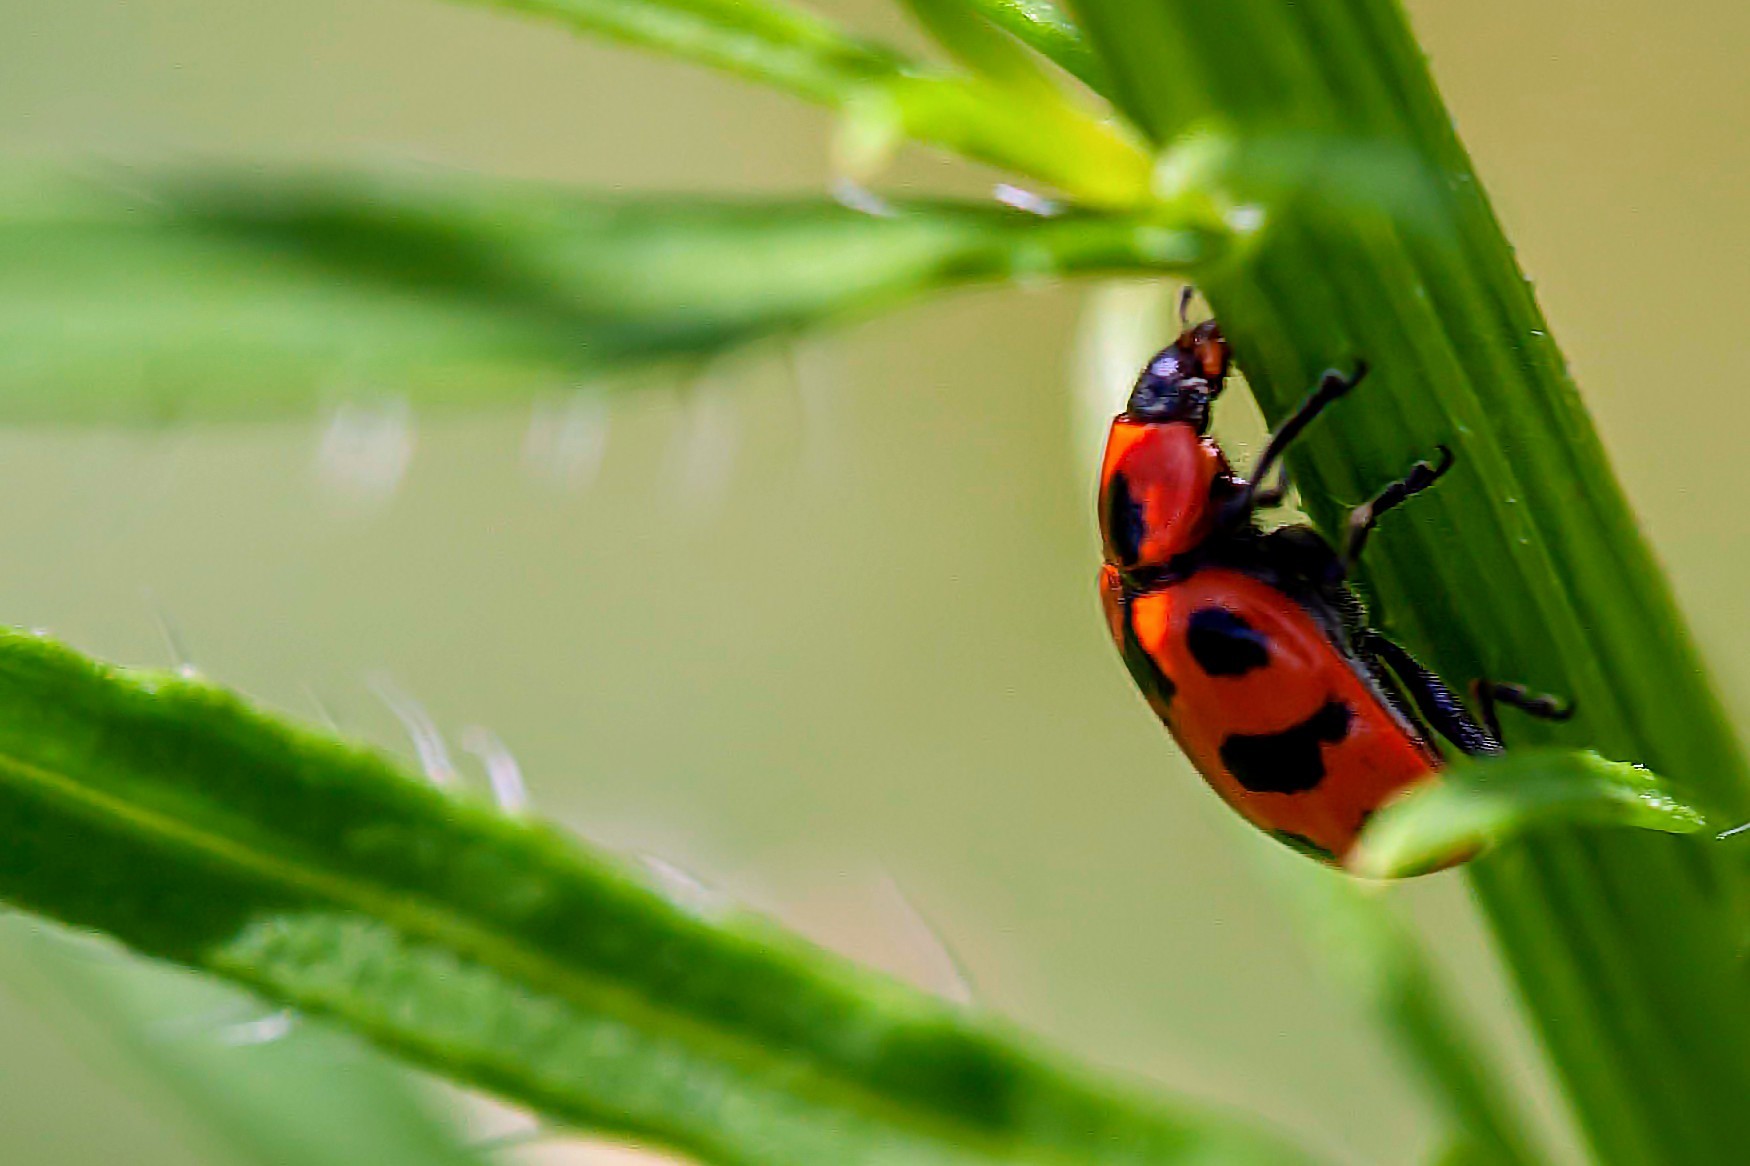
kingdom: Animalia
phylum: Arthropoda
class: Insecta
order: Coleoptera
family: Coccinellidae
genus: Coleomegilla
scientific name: Coleomegilla maculata
